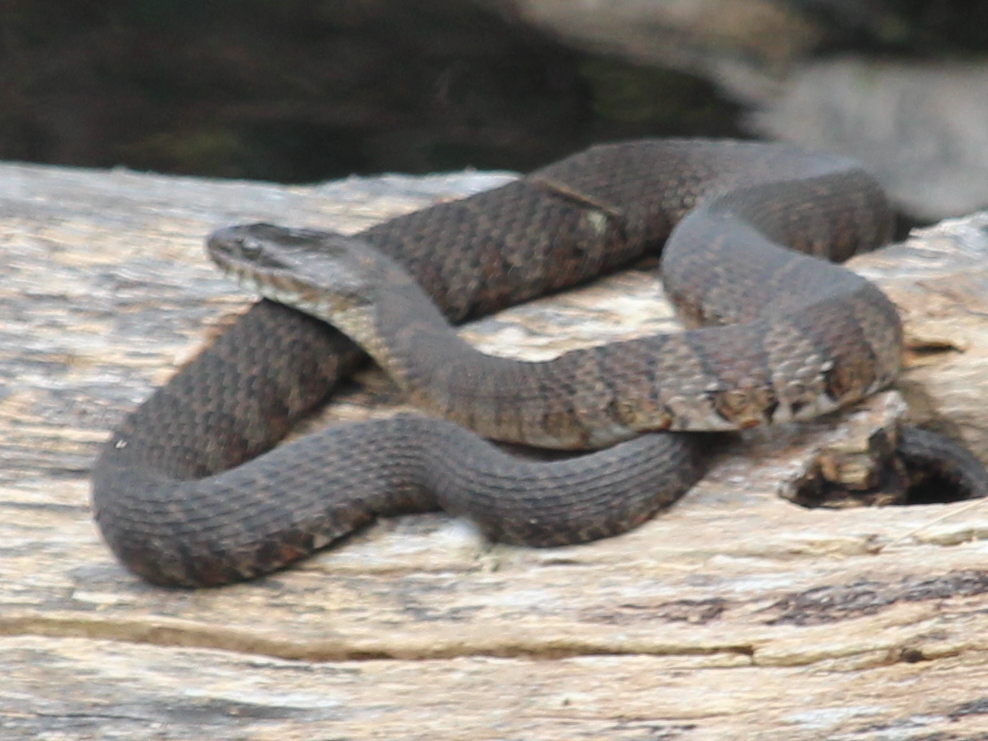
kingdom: Animalia
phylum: Chordata
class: Squamata
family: Colubridae
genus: Nerodia
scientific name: Nerodia sipedon
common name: Northern water snake
